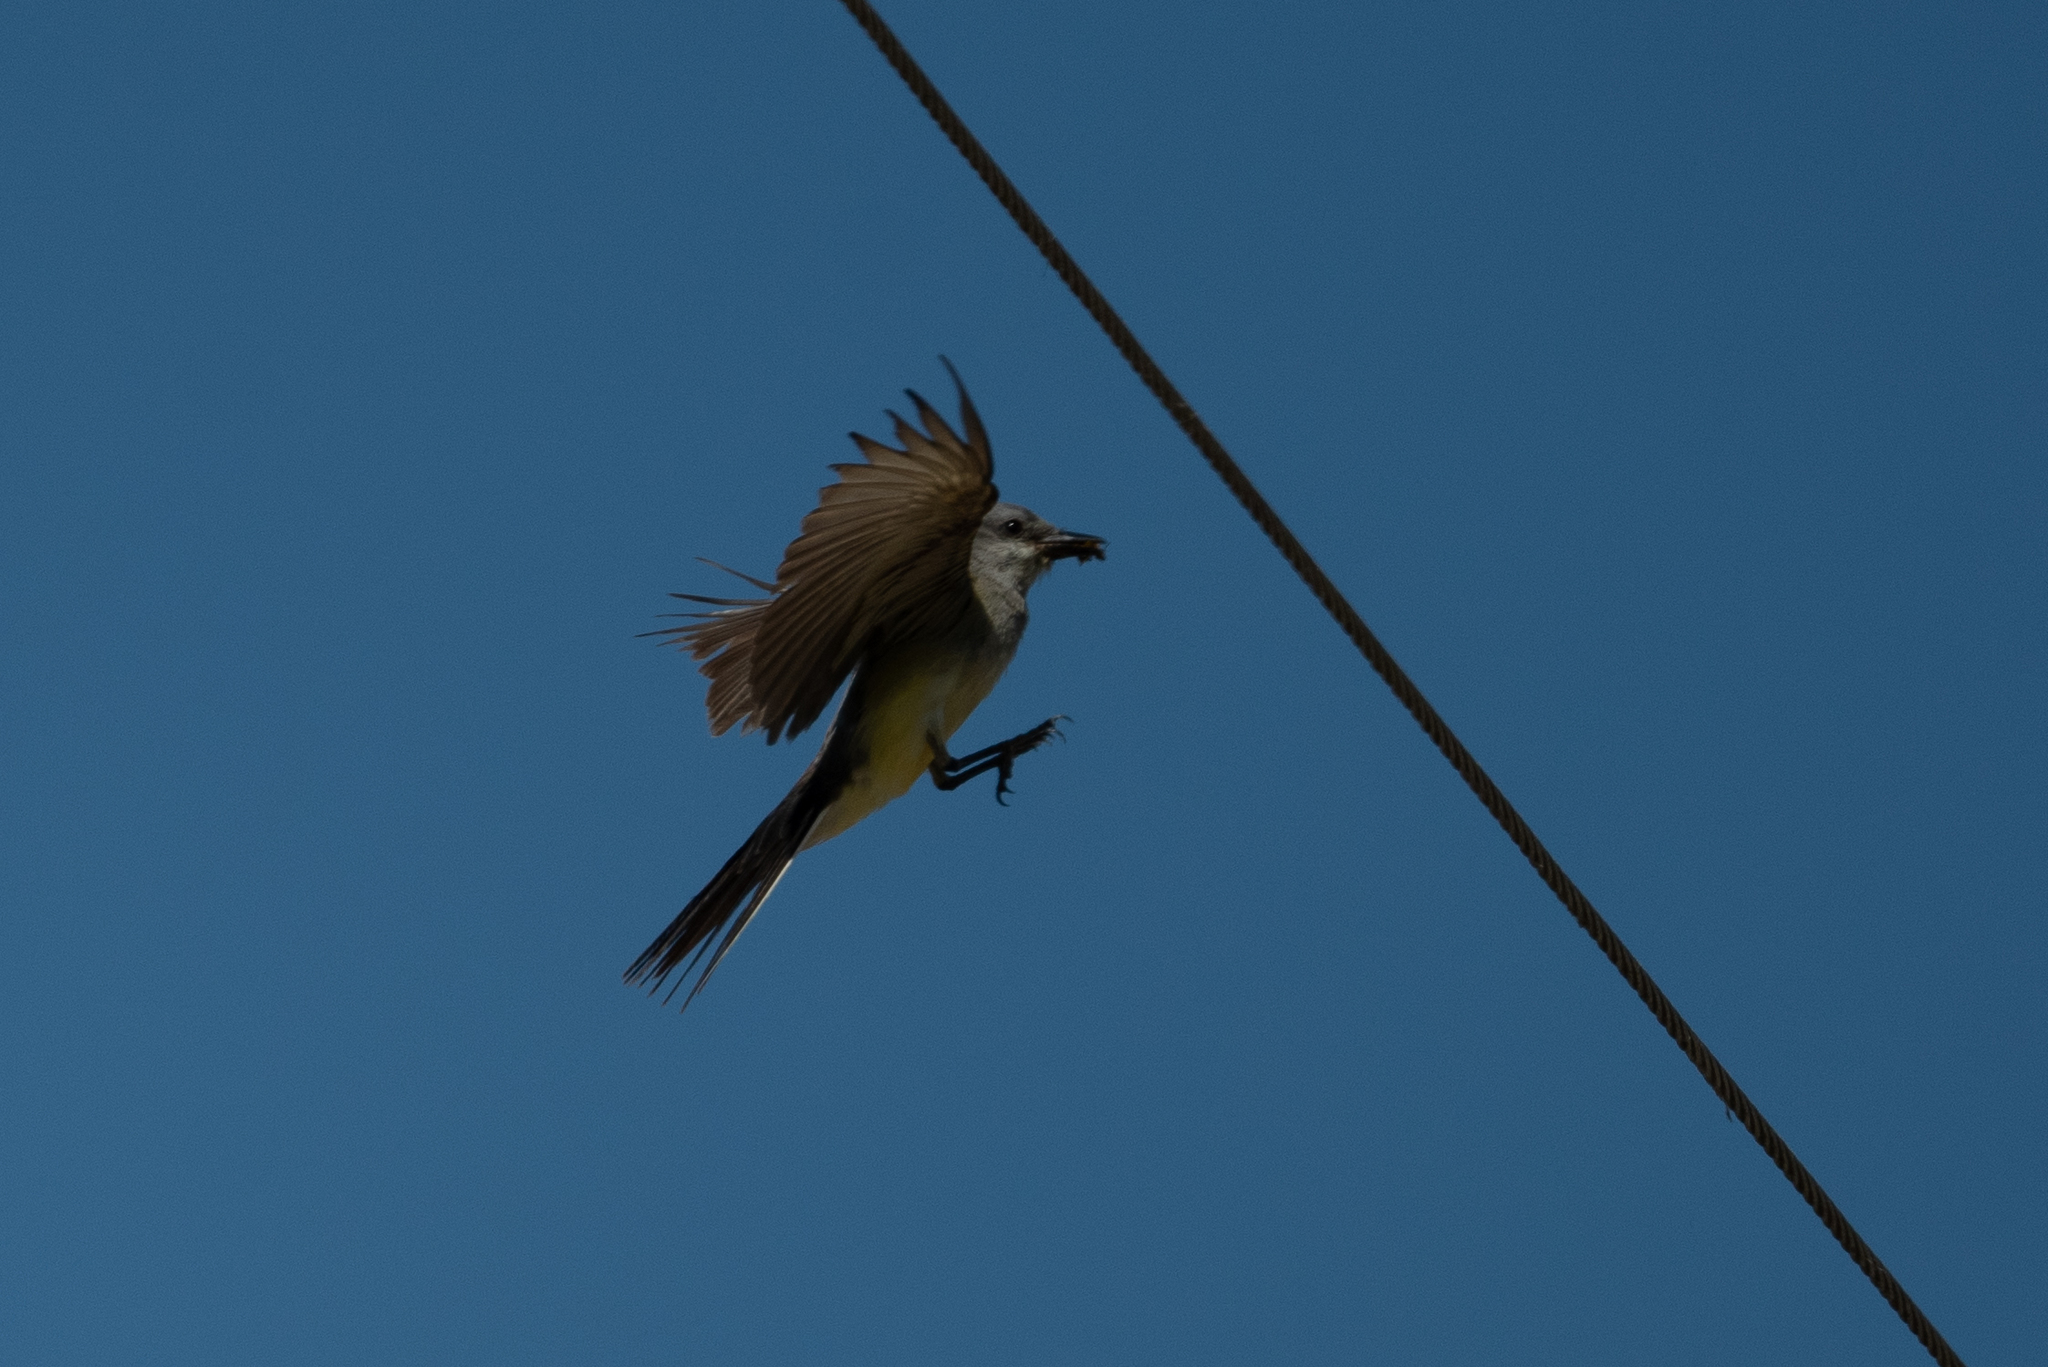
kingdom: Animalia
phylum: Chordata
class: Aves
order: Passeriformes
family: Tyrannidae
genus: Tyrannus
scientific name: Tyrannus verticalis
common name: Western kingbird
